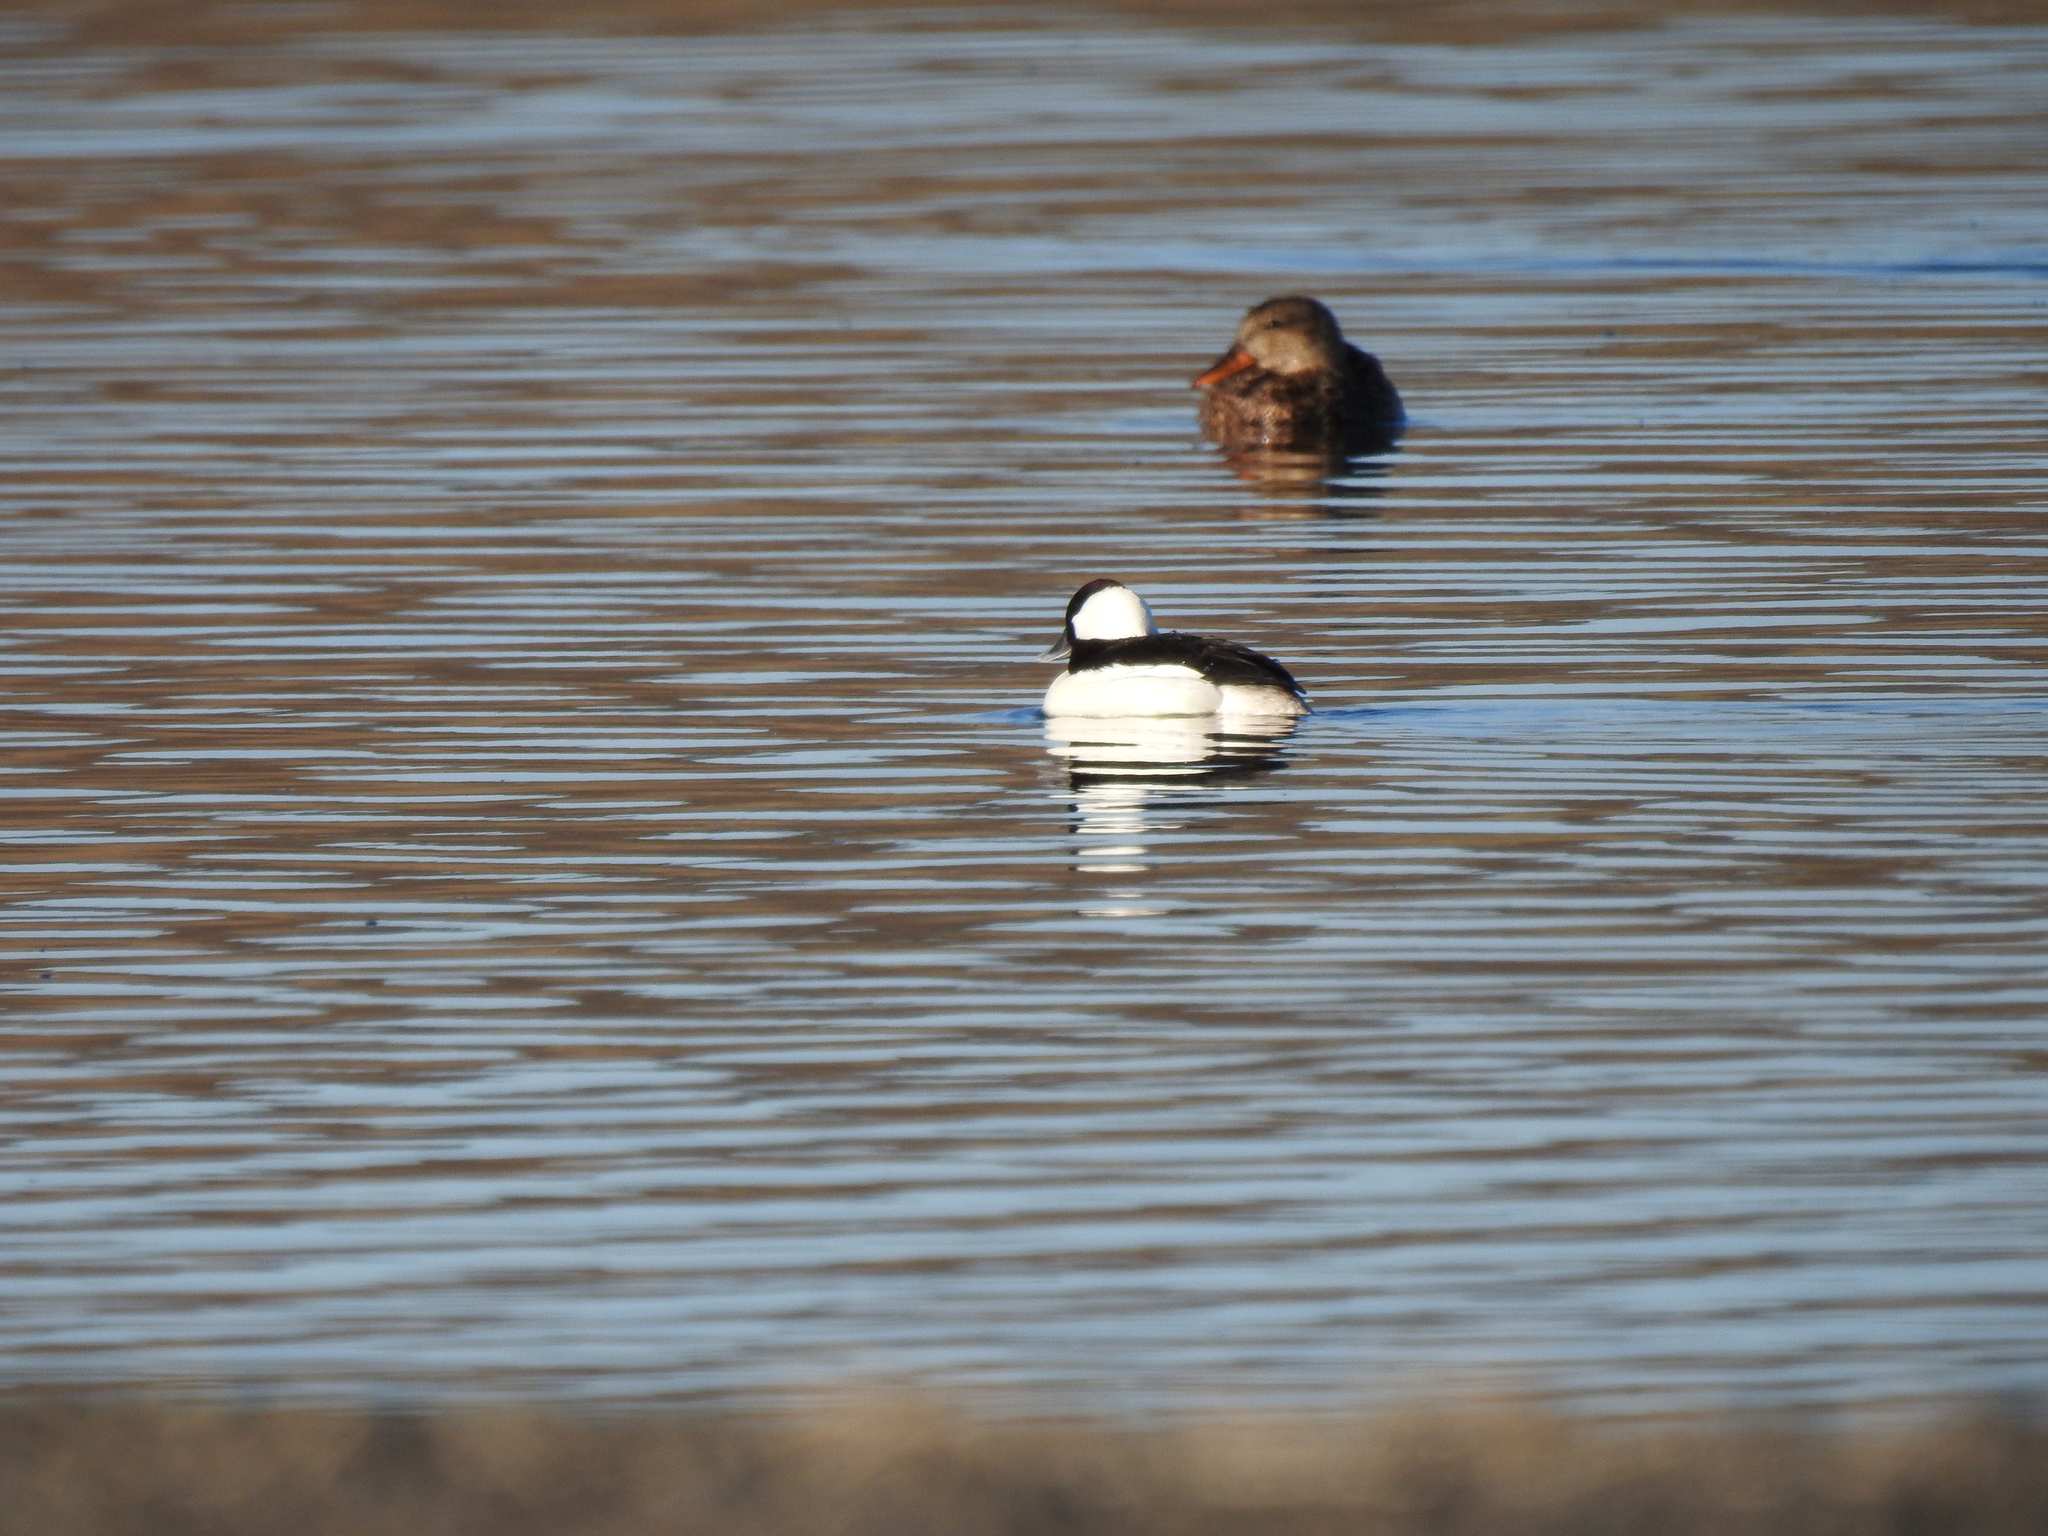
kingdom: Animalia
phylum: Chordata
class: Aves
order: Anseriformes
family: Anatidae
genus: Bucephala
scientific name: Bucephala albeola
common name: Bufflehead
